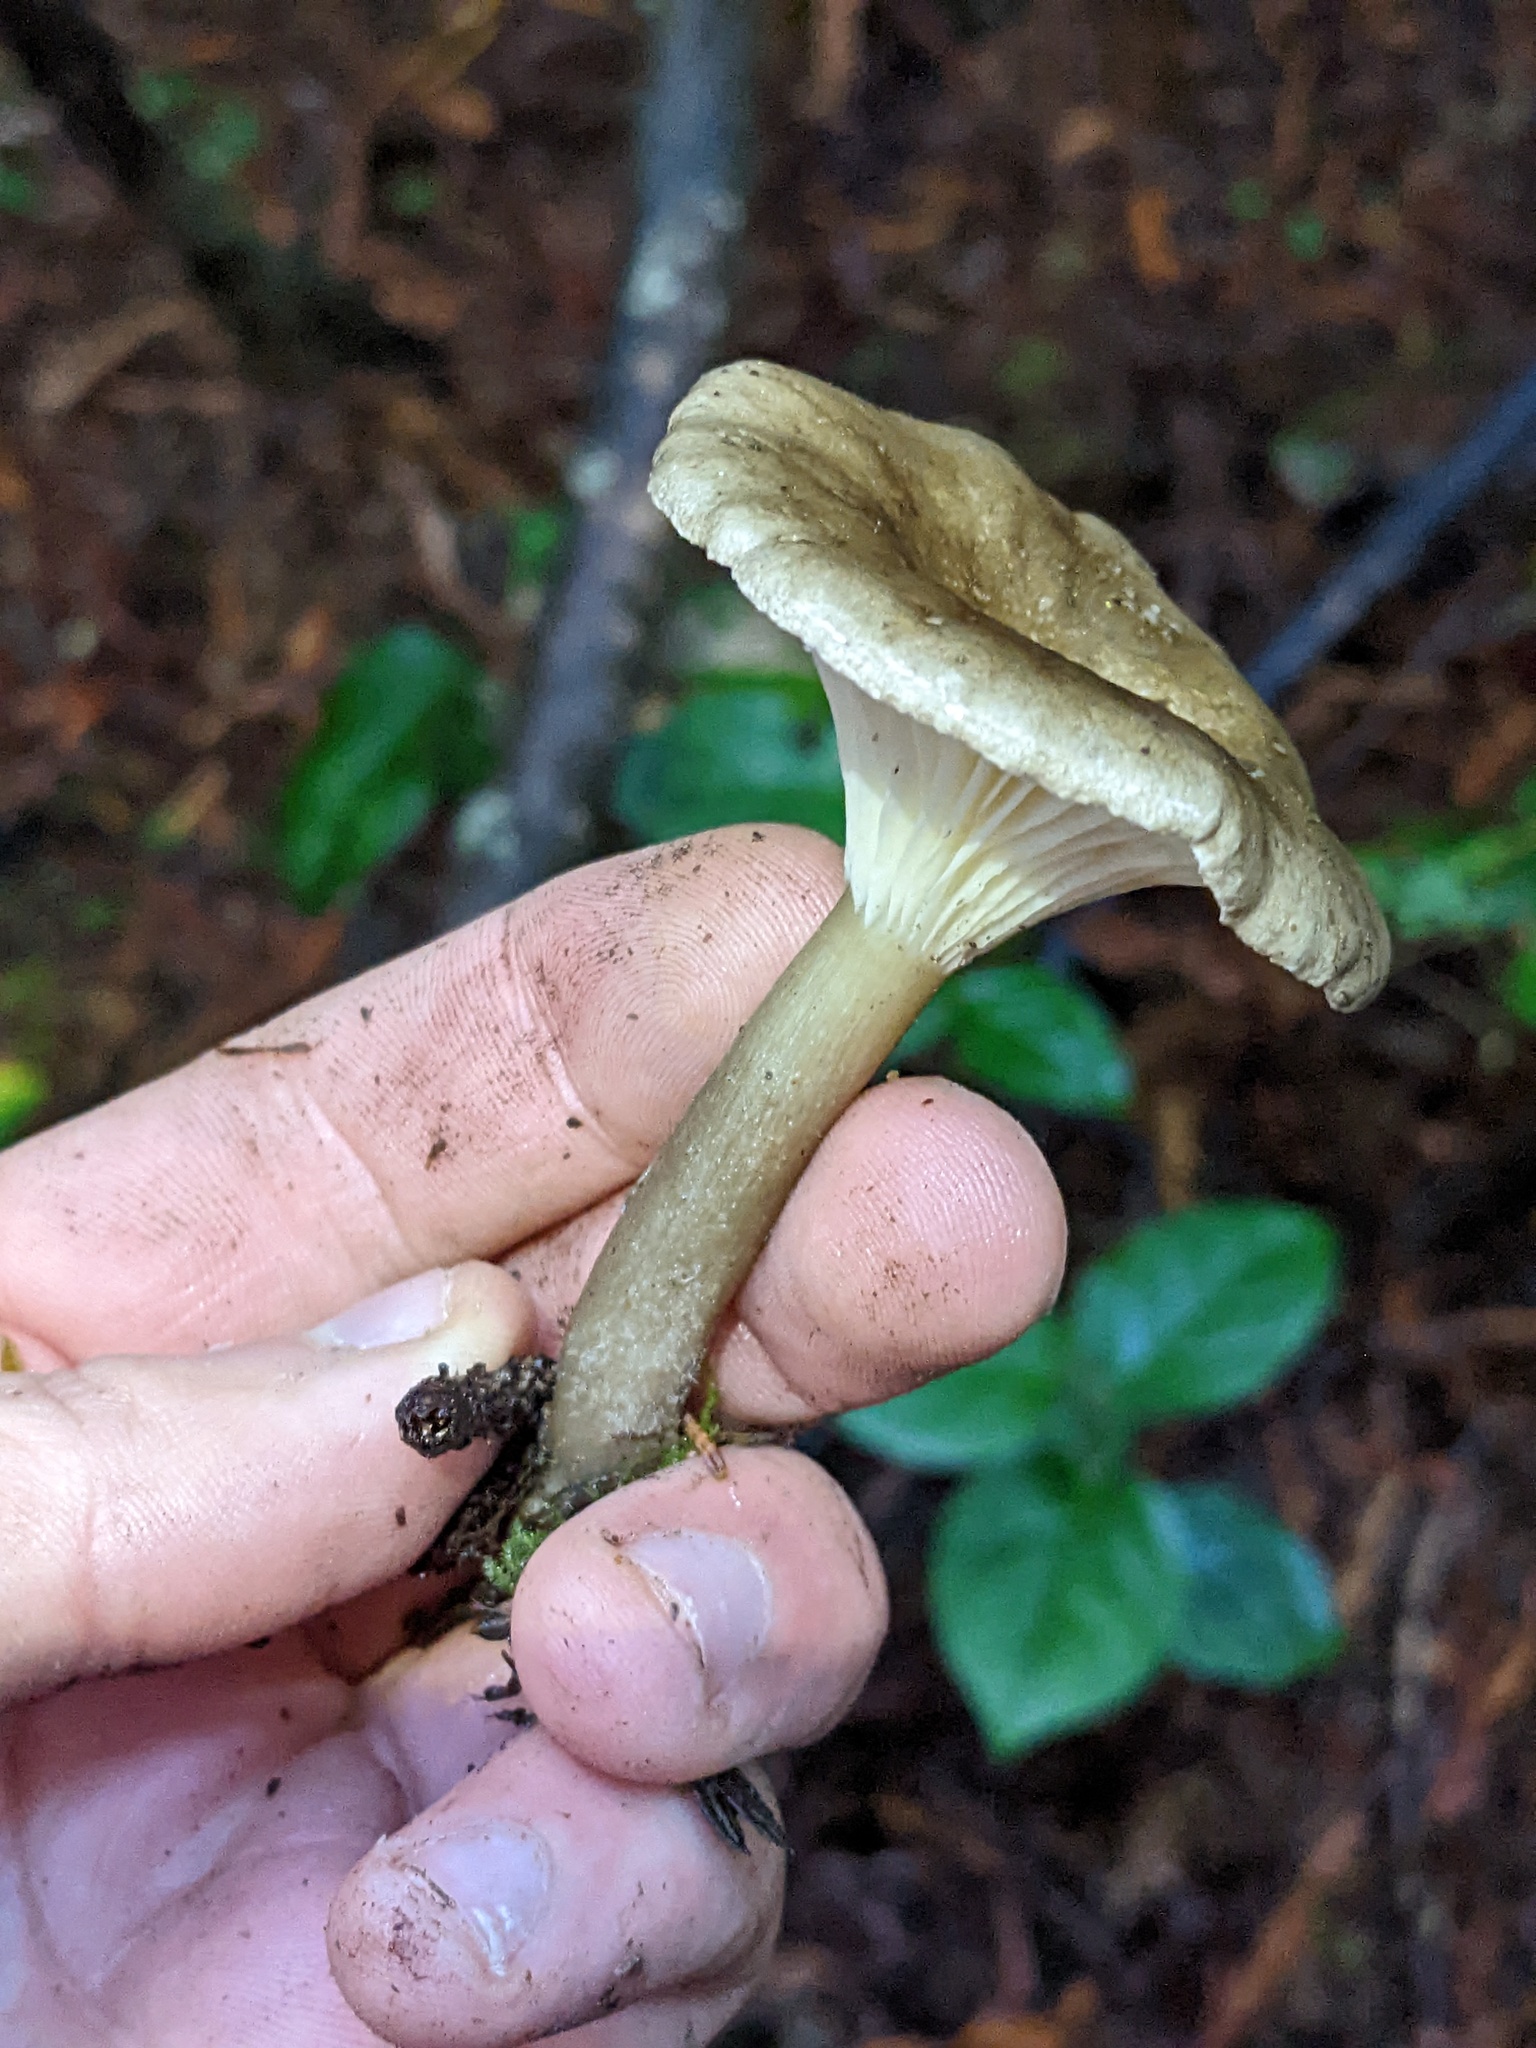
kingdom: Fungi
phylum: Basidiomycota
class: Agaricomycetes
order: Agaricales
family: Hygrophoraceae
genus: Ampulloclitocybe
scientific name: Ampulloclitocybe clavipes
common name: Club foot
